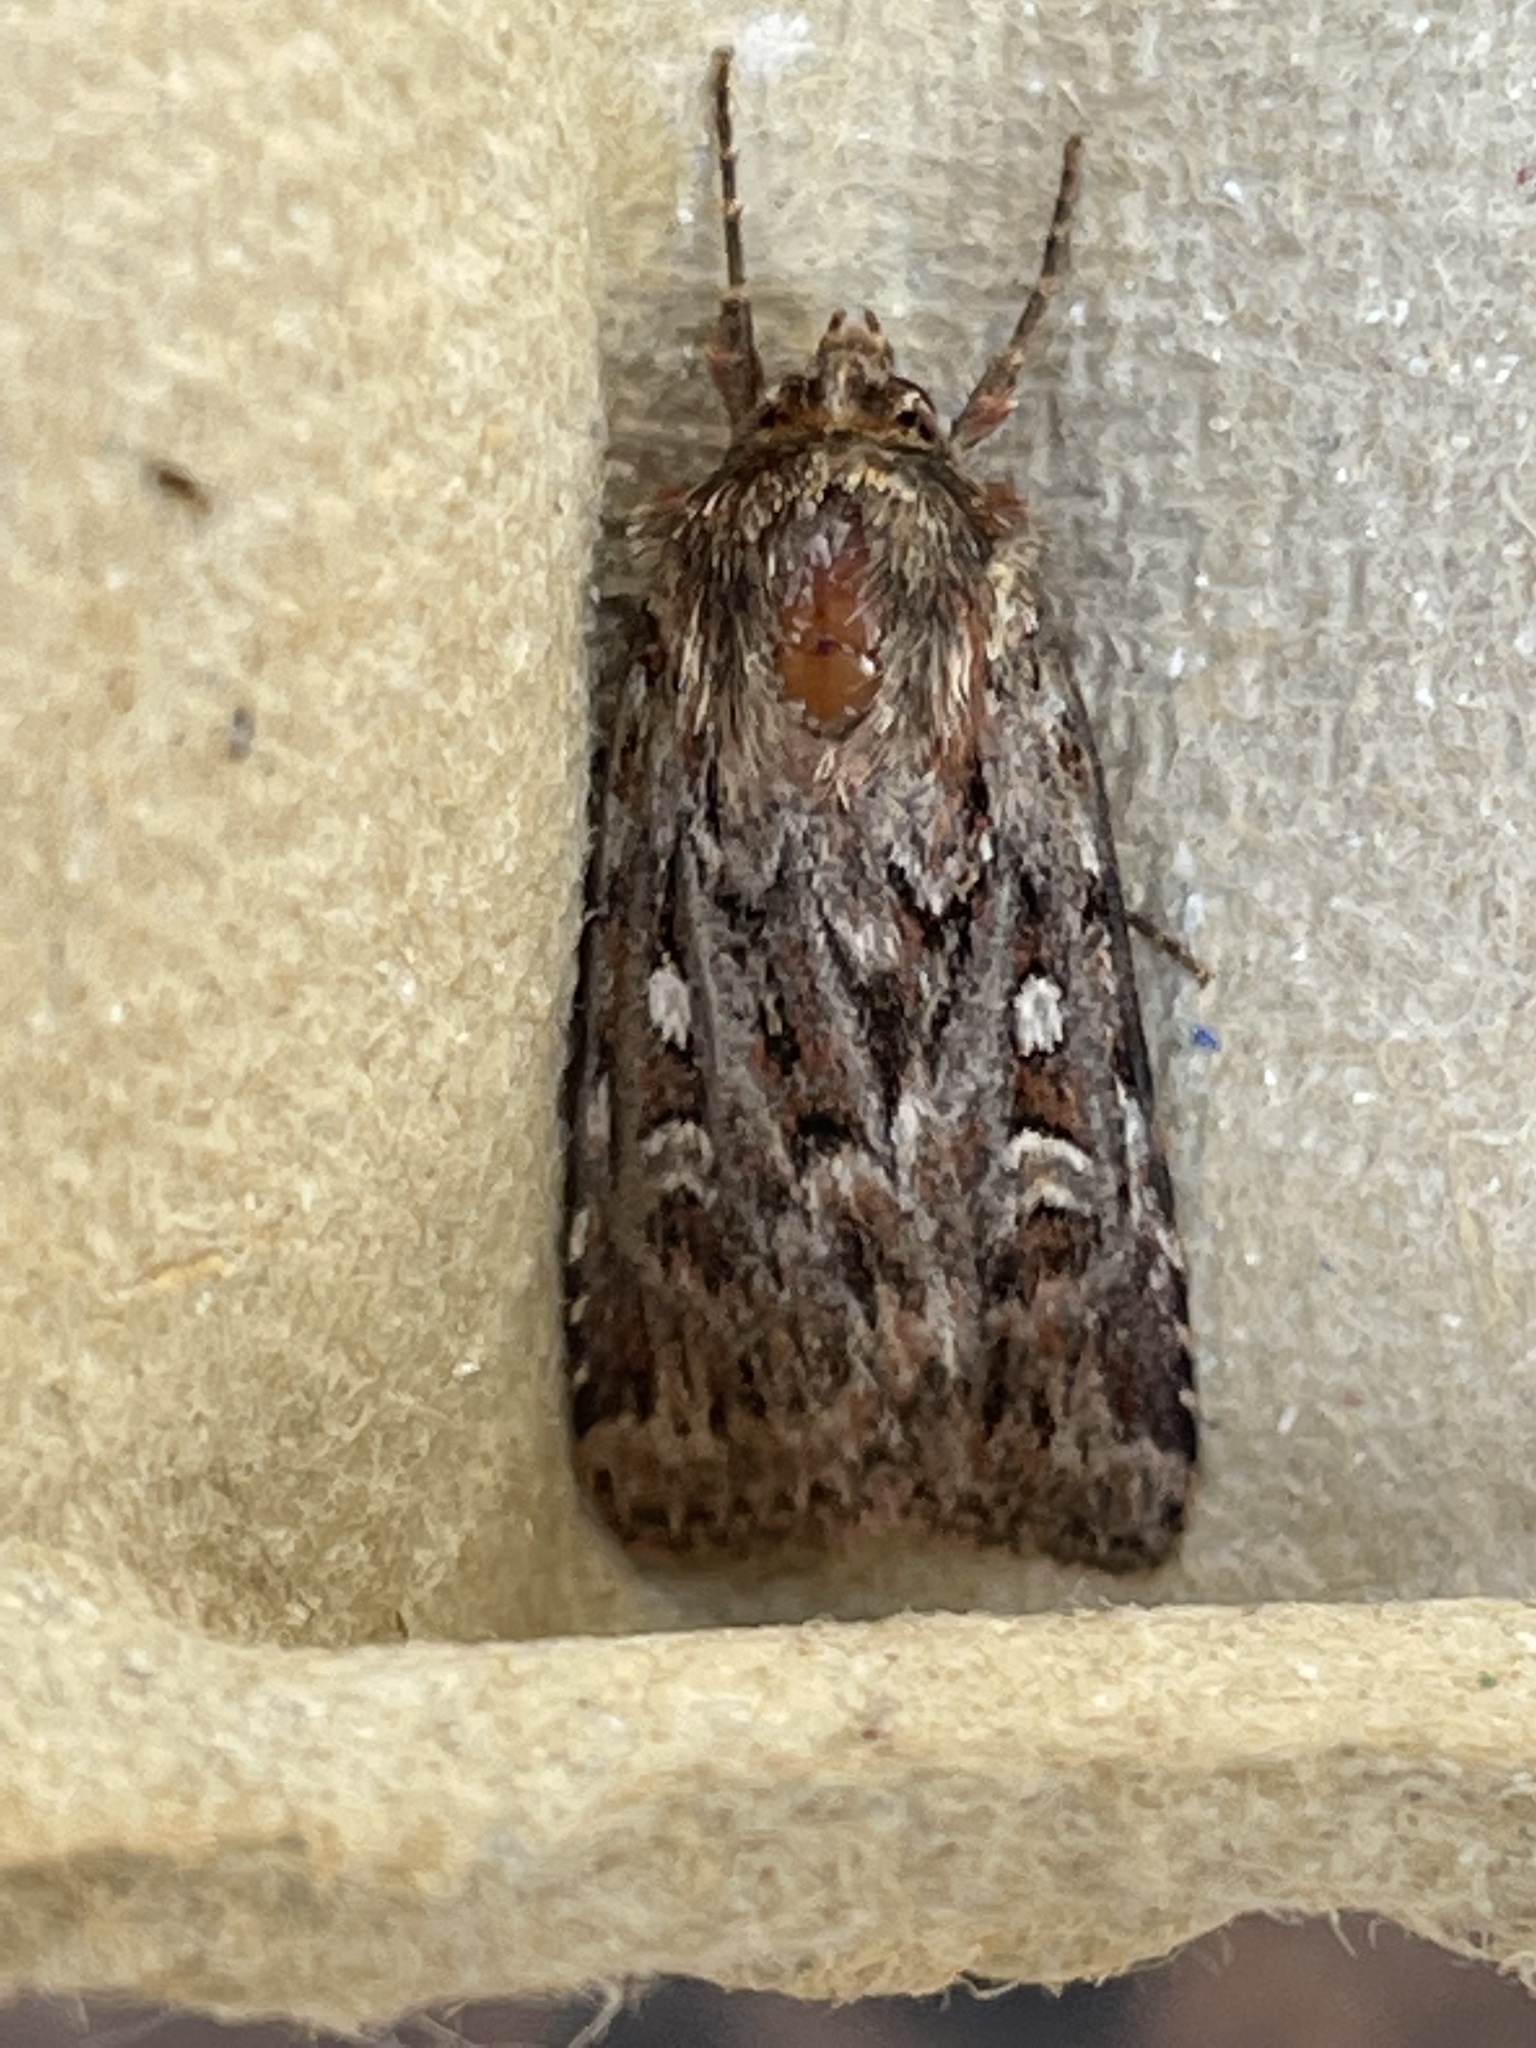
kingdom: Animalia
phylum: Arthropoda
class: Insecta
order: Lepidoptera
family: Noctuidae
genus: Lycophotia
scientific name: Lycophotia porphyrea
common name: True lover's knot
